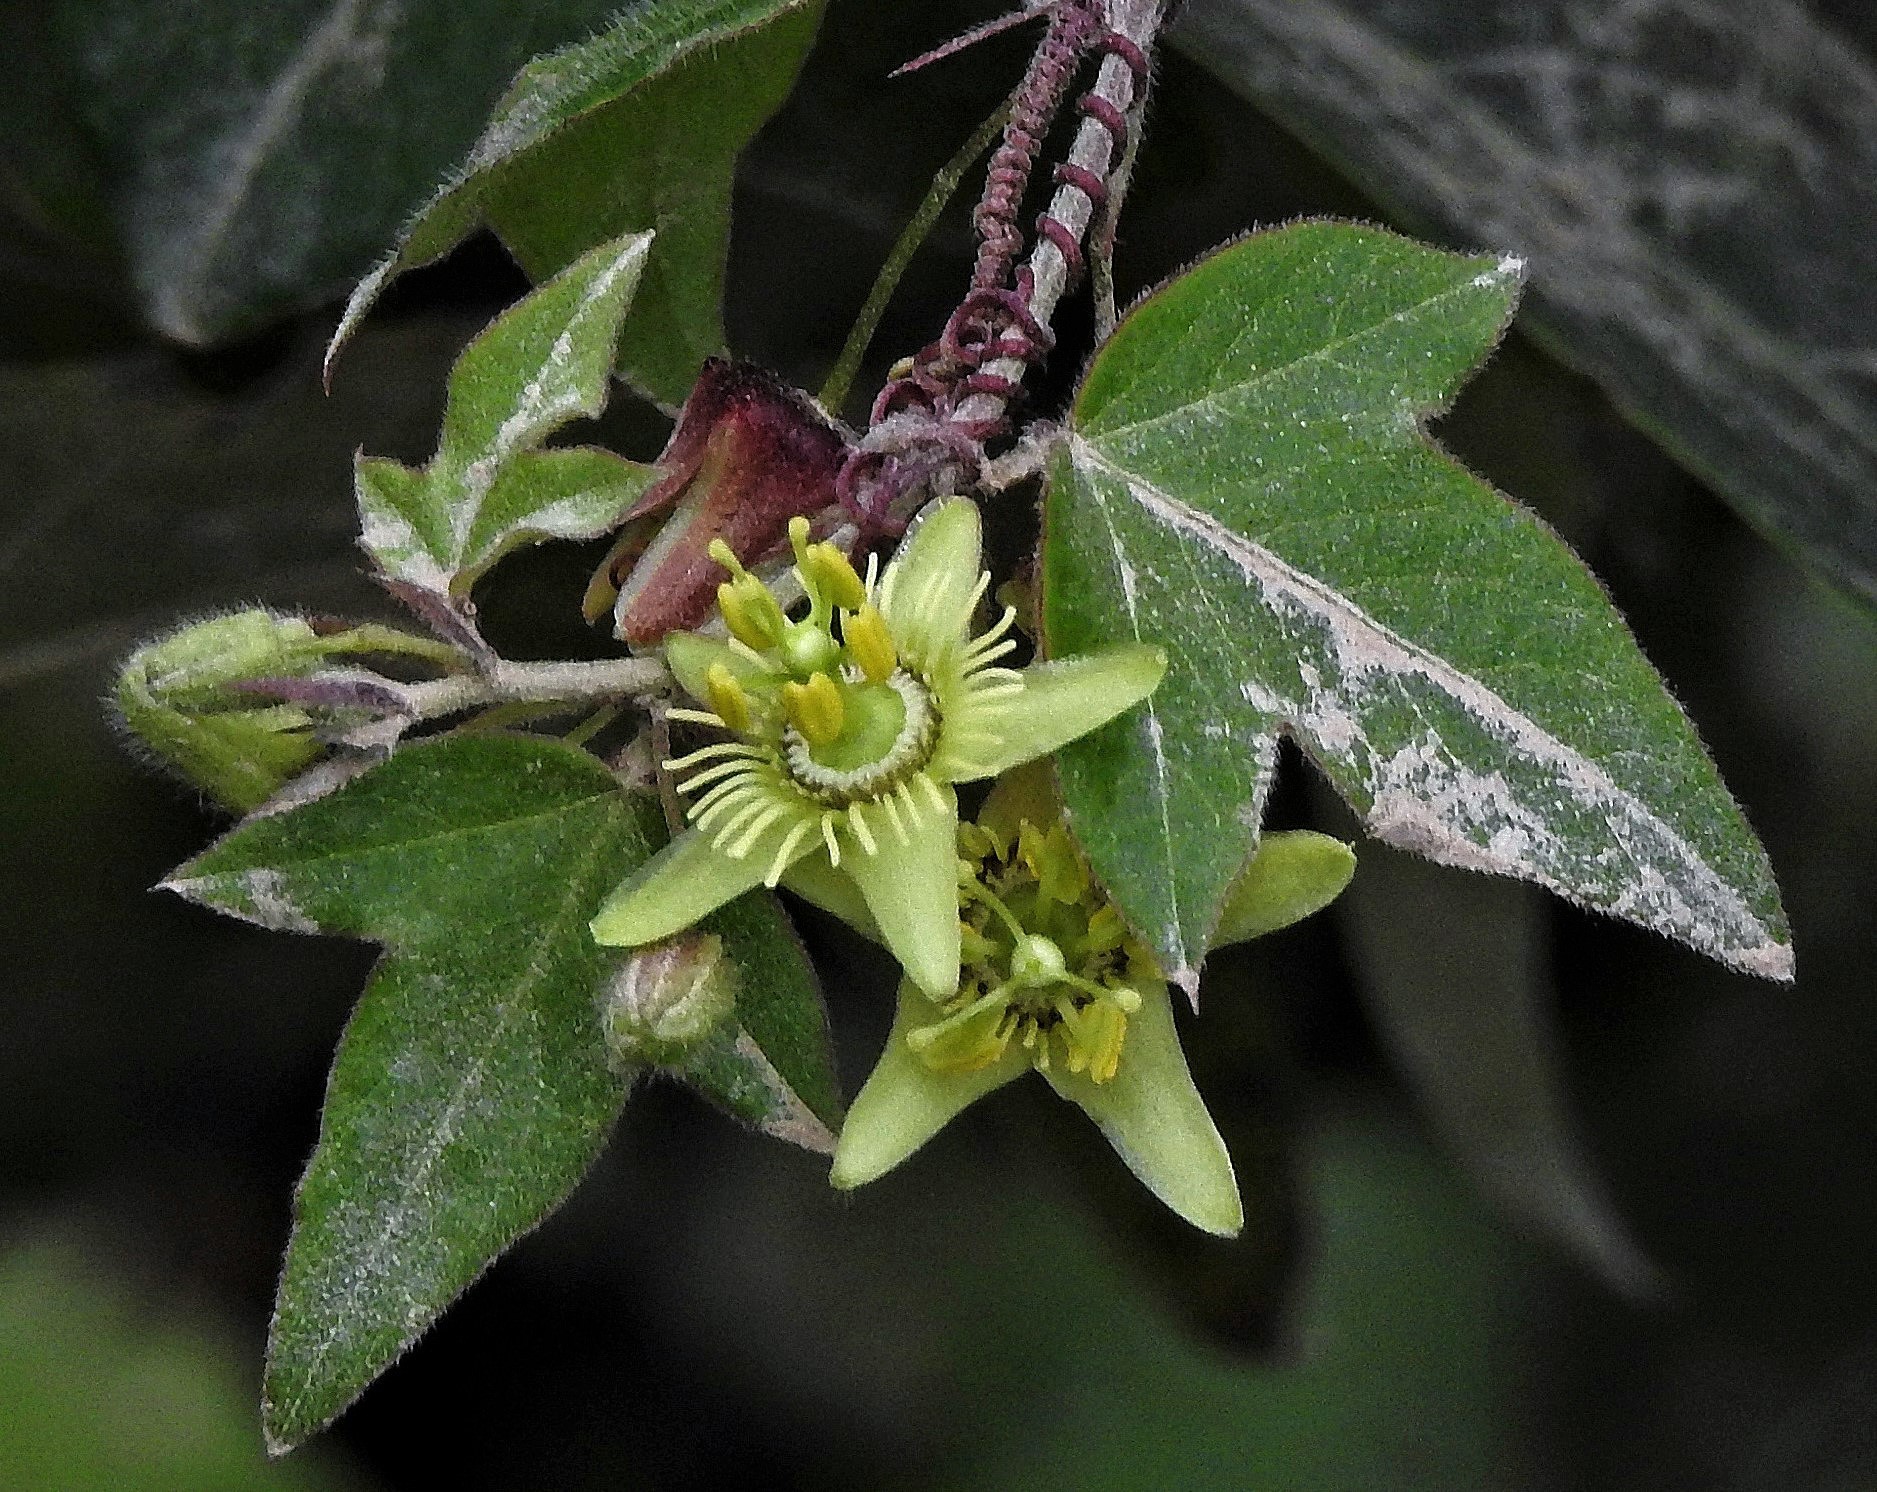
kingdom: Plantae
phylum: Tracheophyta
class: Magnoliopsida
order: Malpighiales
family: Passifloraceae
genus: Passiflora
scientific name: Passiflora suberosa
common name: Wild passionfruit
